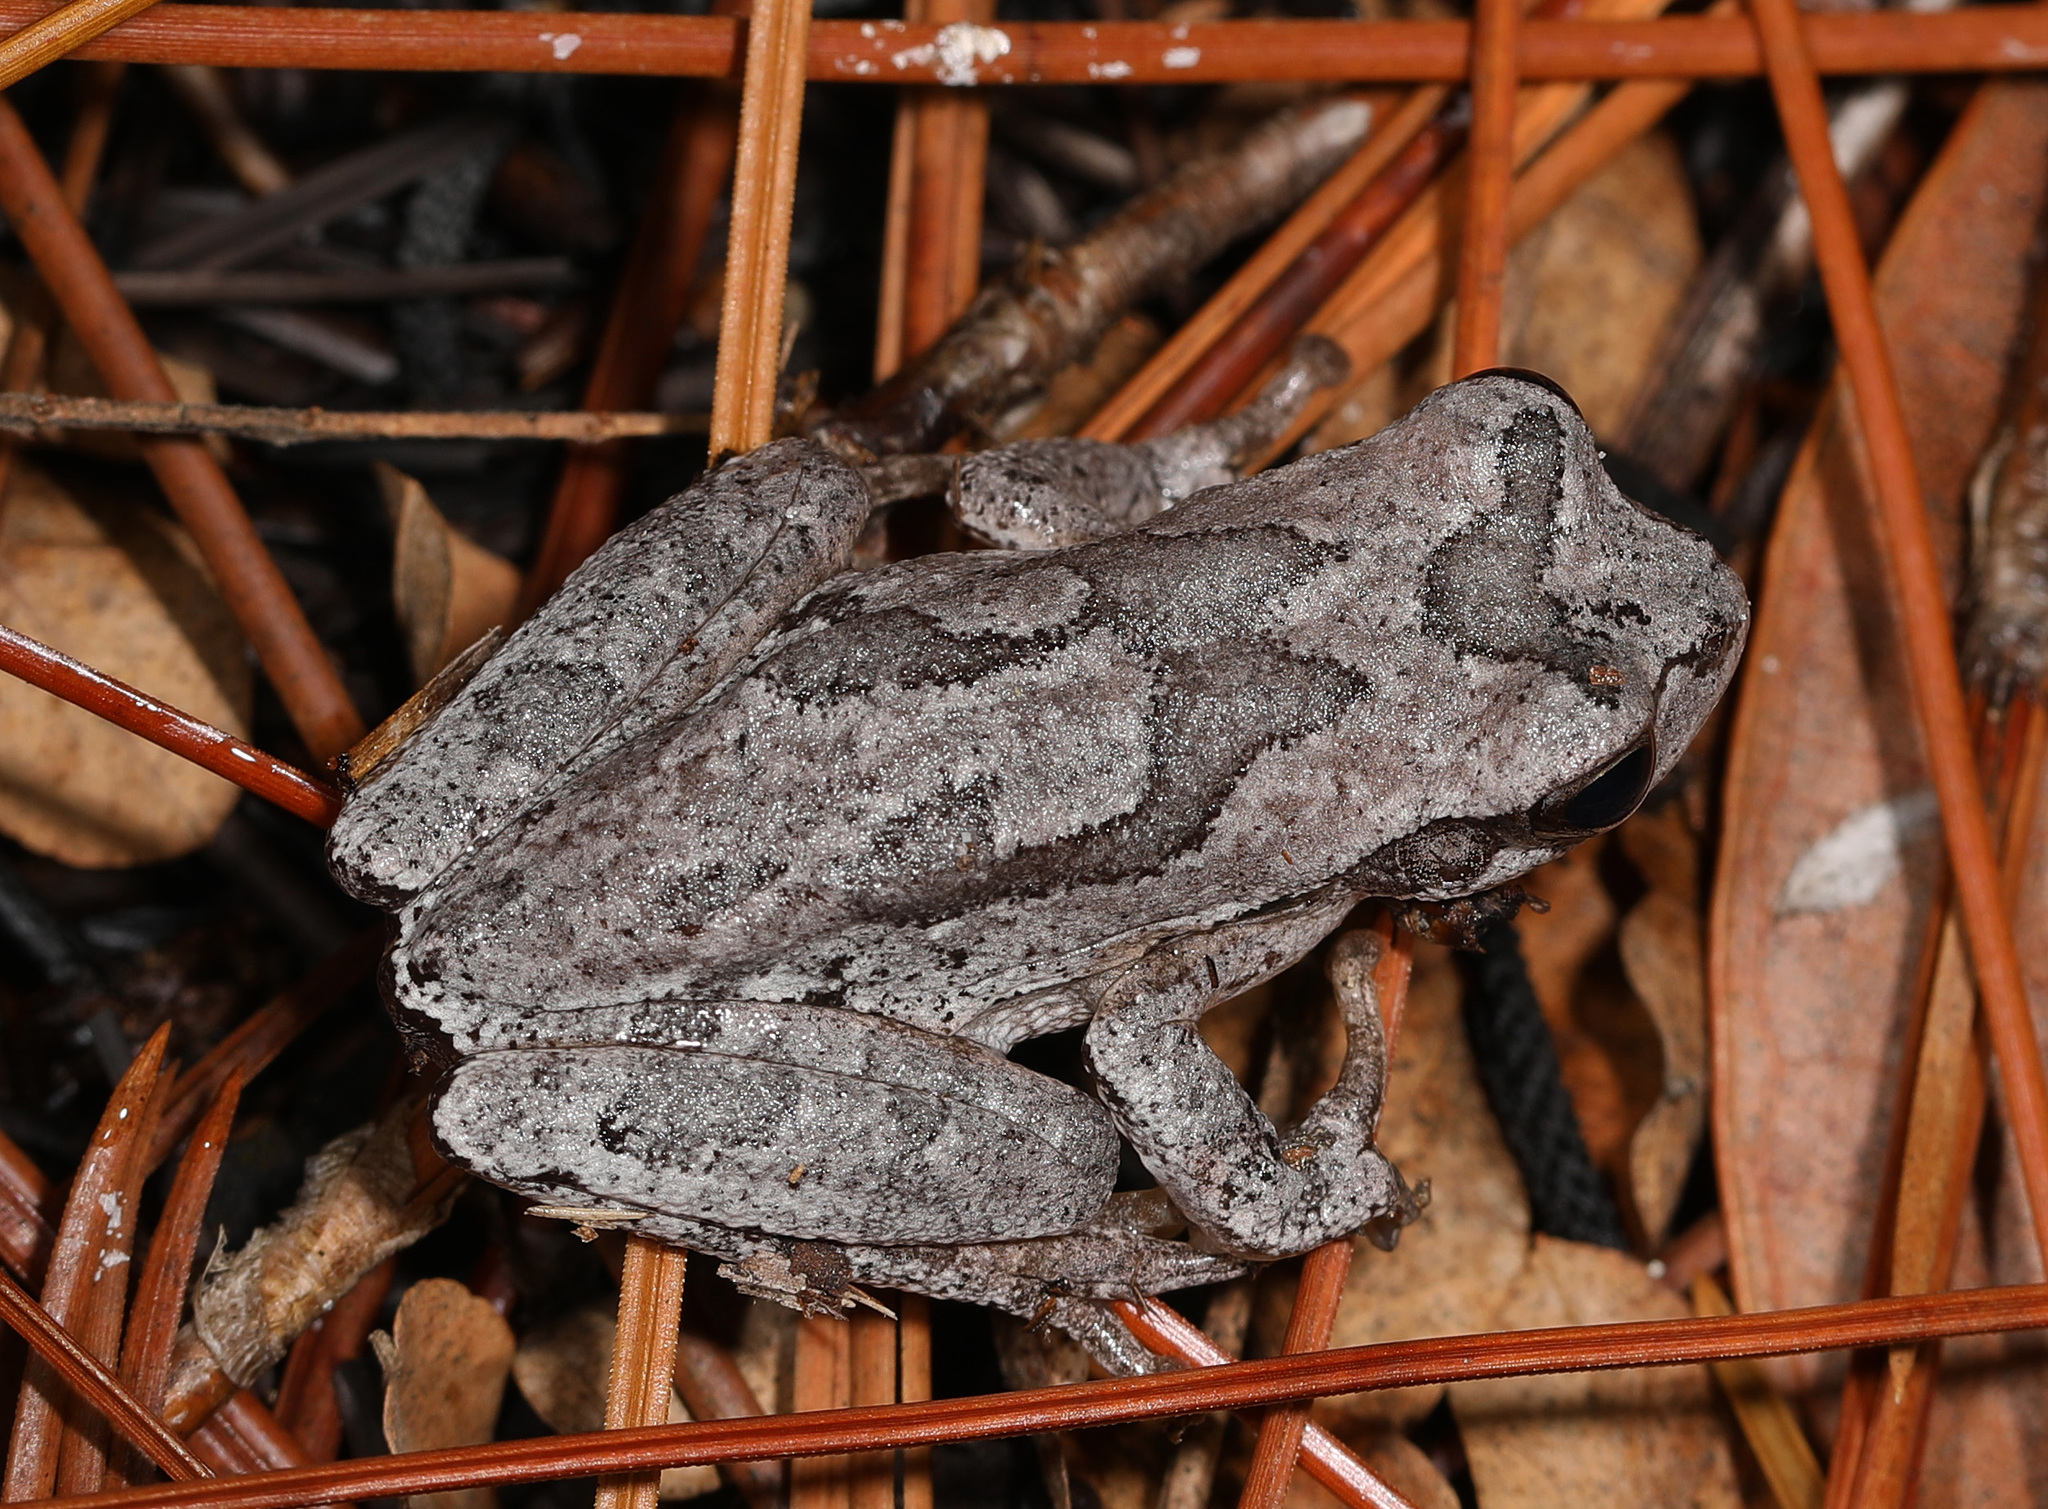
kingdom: Animalia
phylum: Chordata
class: Amphibia
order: Anura
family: Hylidae
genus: Hyla
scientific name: Hyla femoralis
